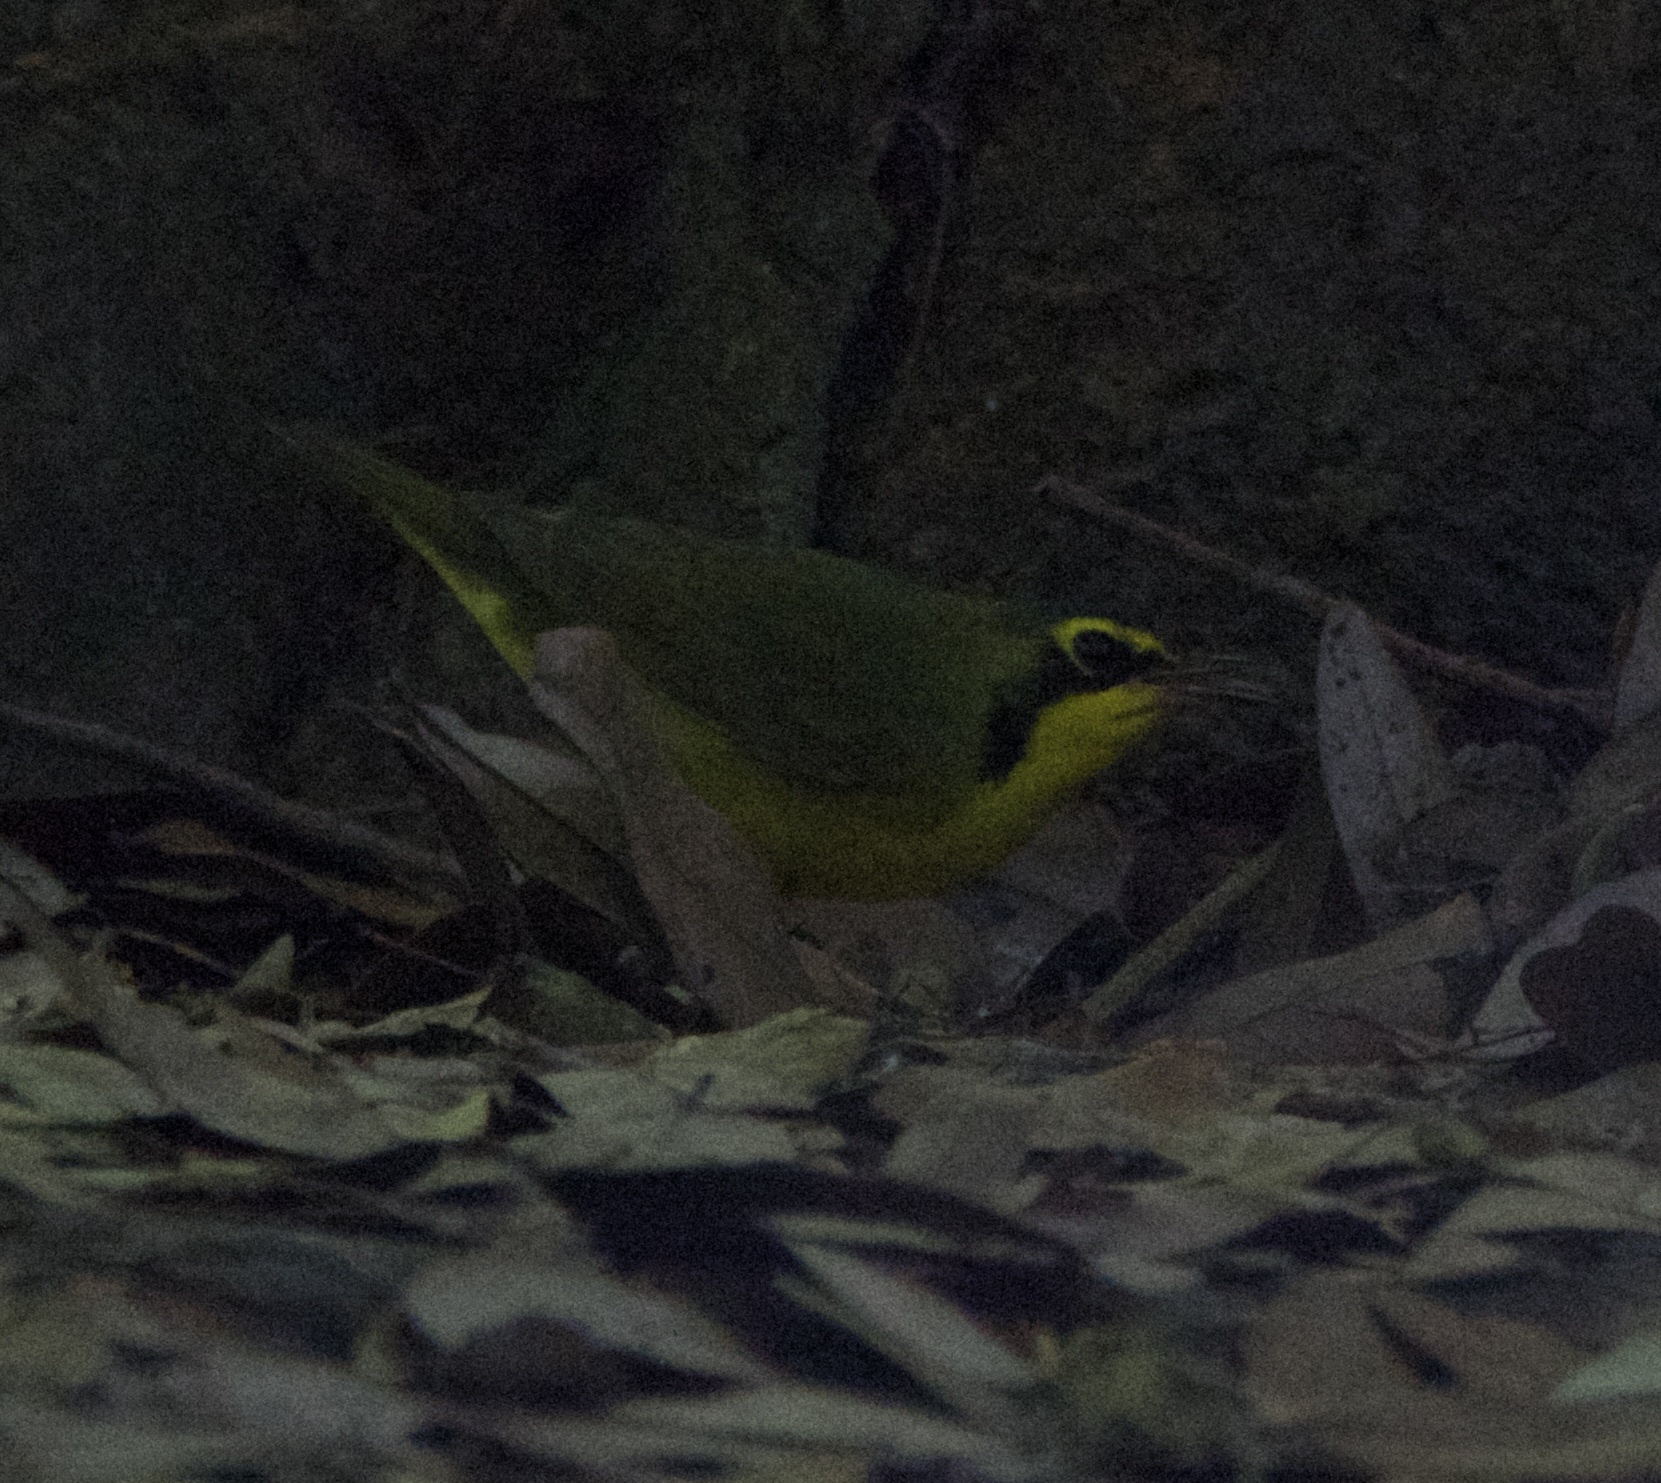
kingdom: Animalia
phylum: Chordata
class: Aves
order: Passeriformes
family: Parulidae
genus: Geothlypis
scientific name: Geothlypis formosa
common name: Kentucky warbler
